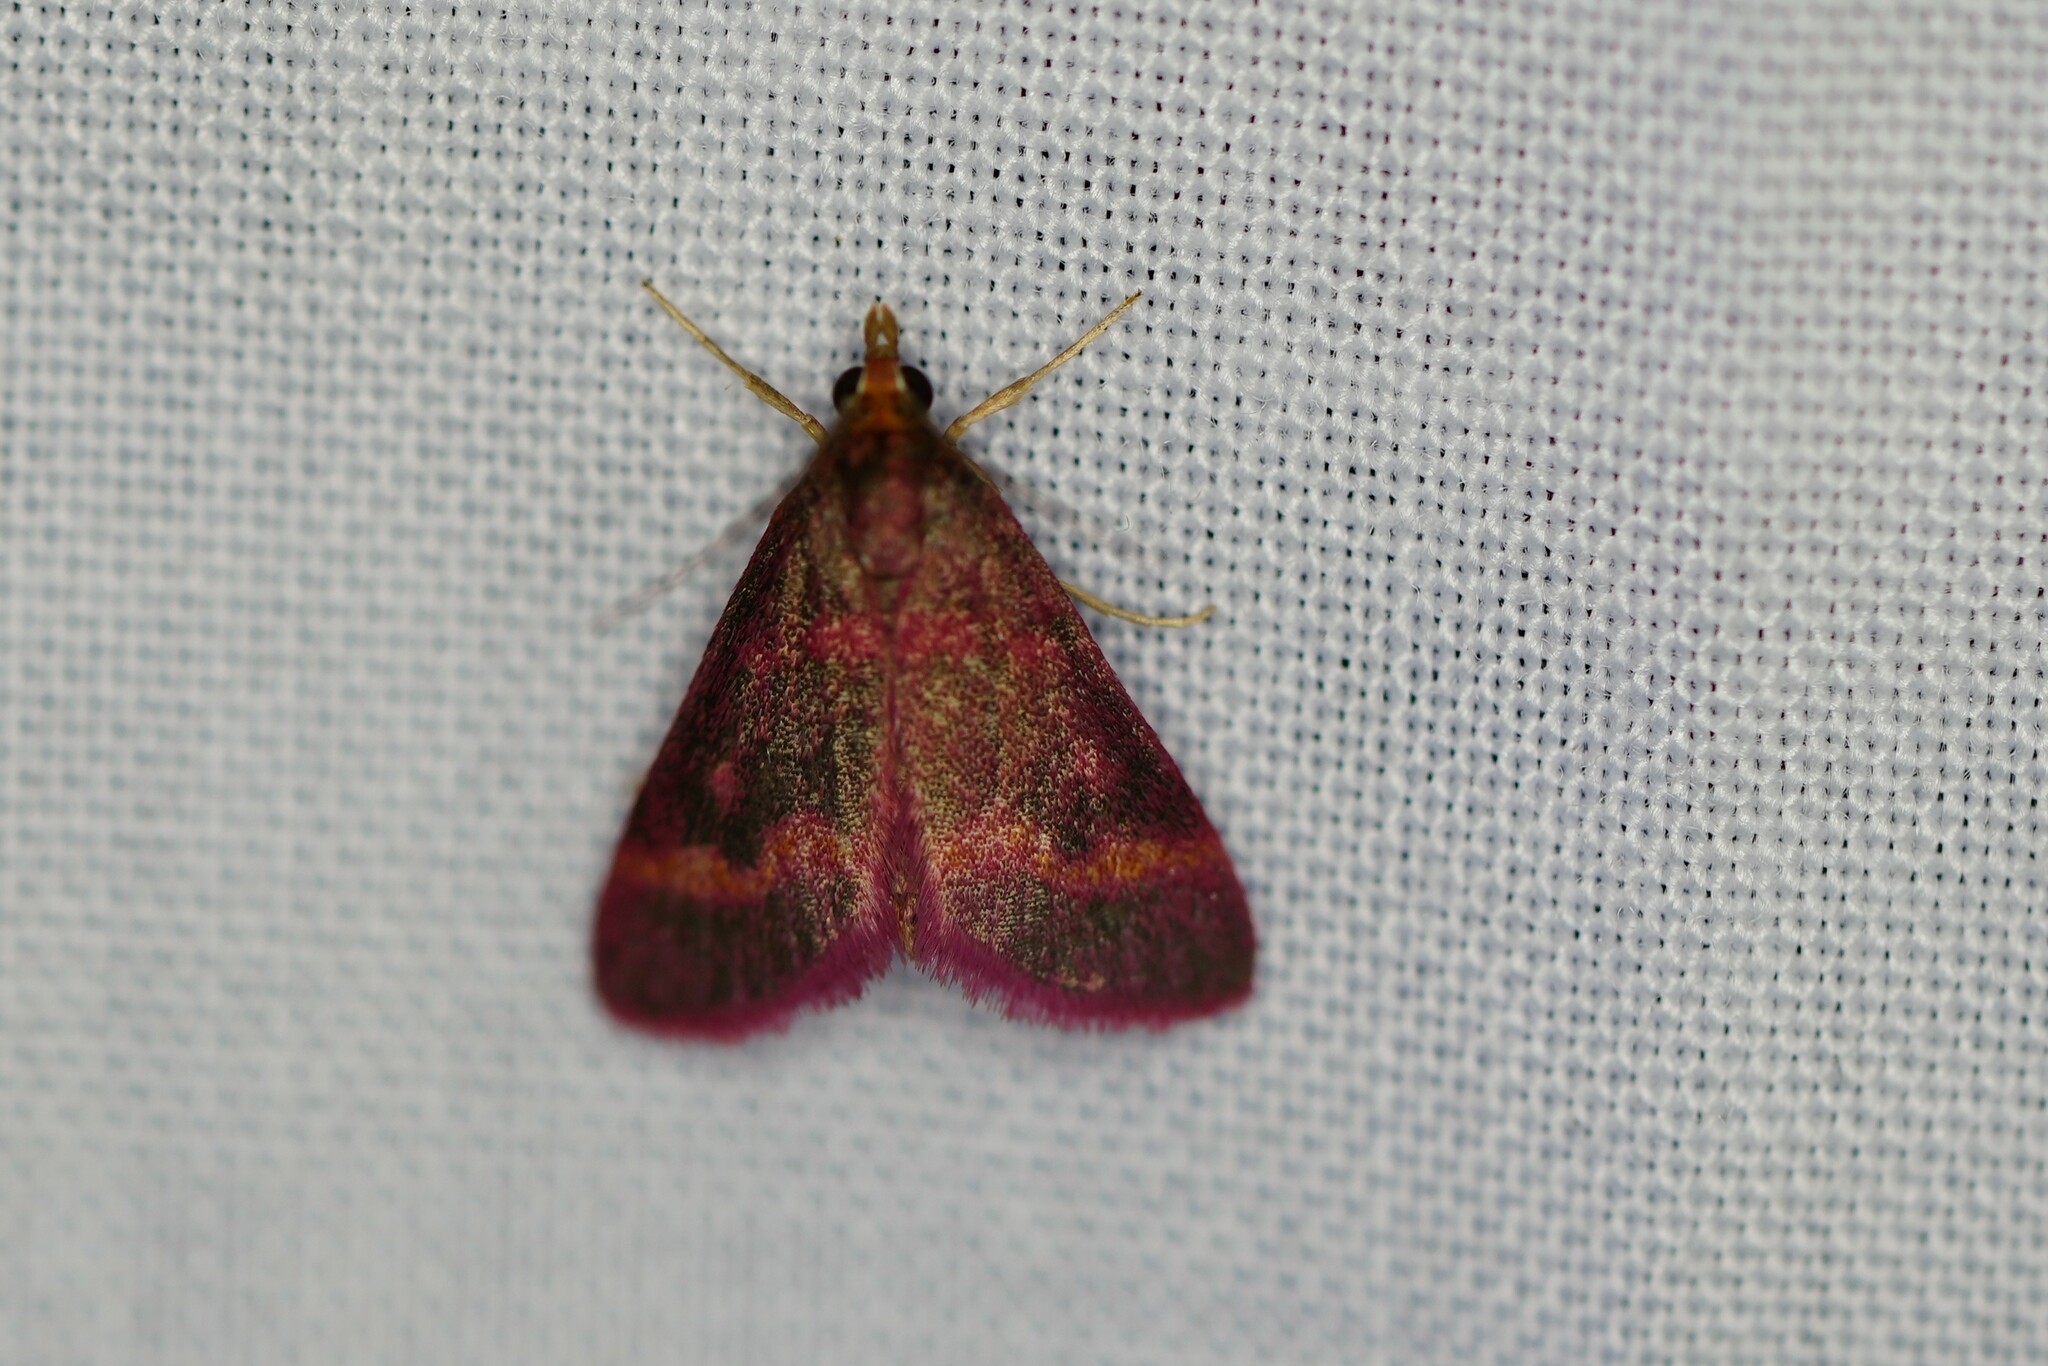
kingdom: Animalia
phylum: Arthropoda
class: Insecta
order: Lepidoptera
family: Crambidae
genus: Pyrausta
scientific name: Pyrausta tyralis
